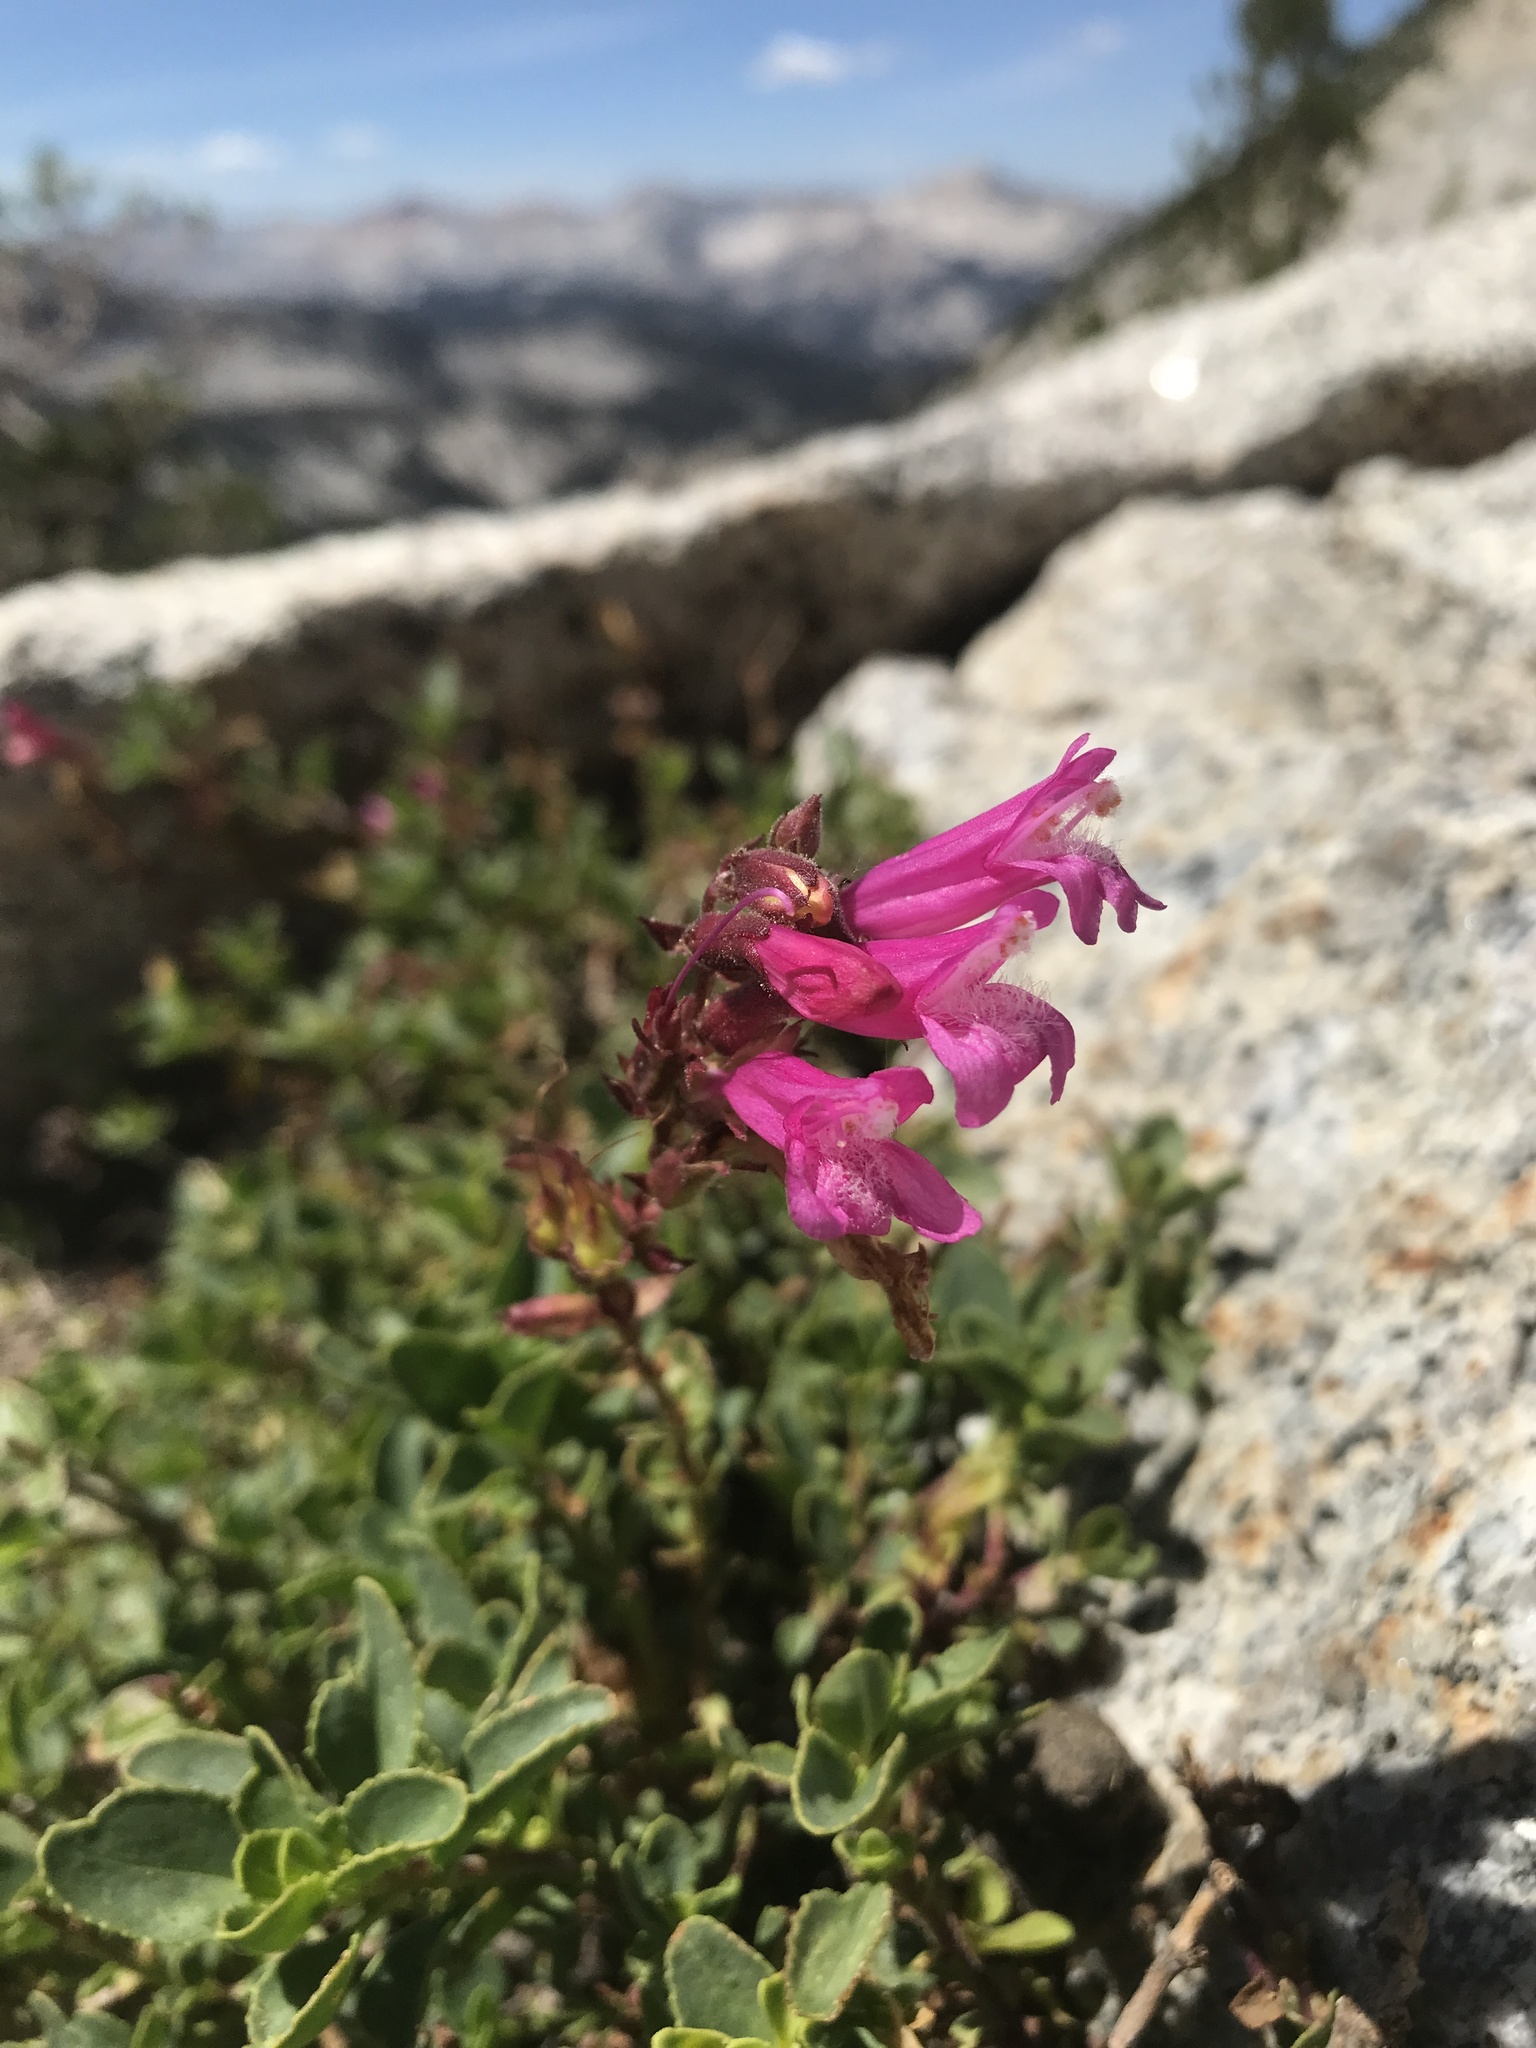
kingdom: Plantae
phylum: Tracheophyta
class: Magnoliopsida
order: Lamiales
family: Plantaginaceae
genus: Penstemon
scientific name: Penstemon newberryi
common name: Mountain-pride
